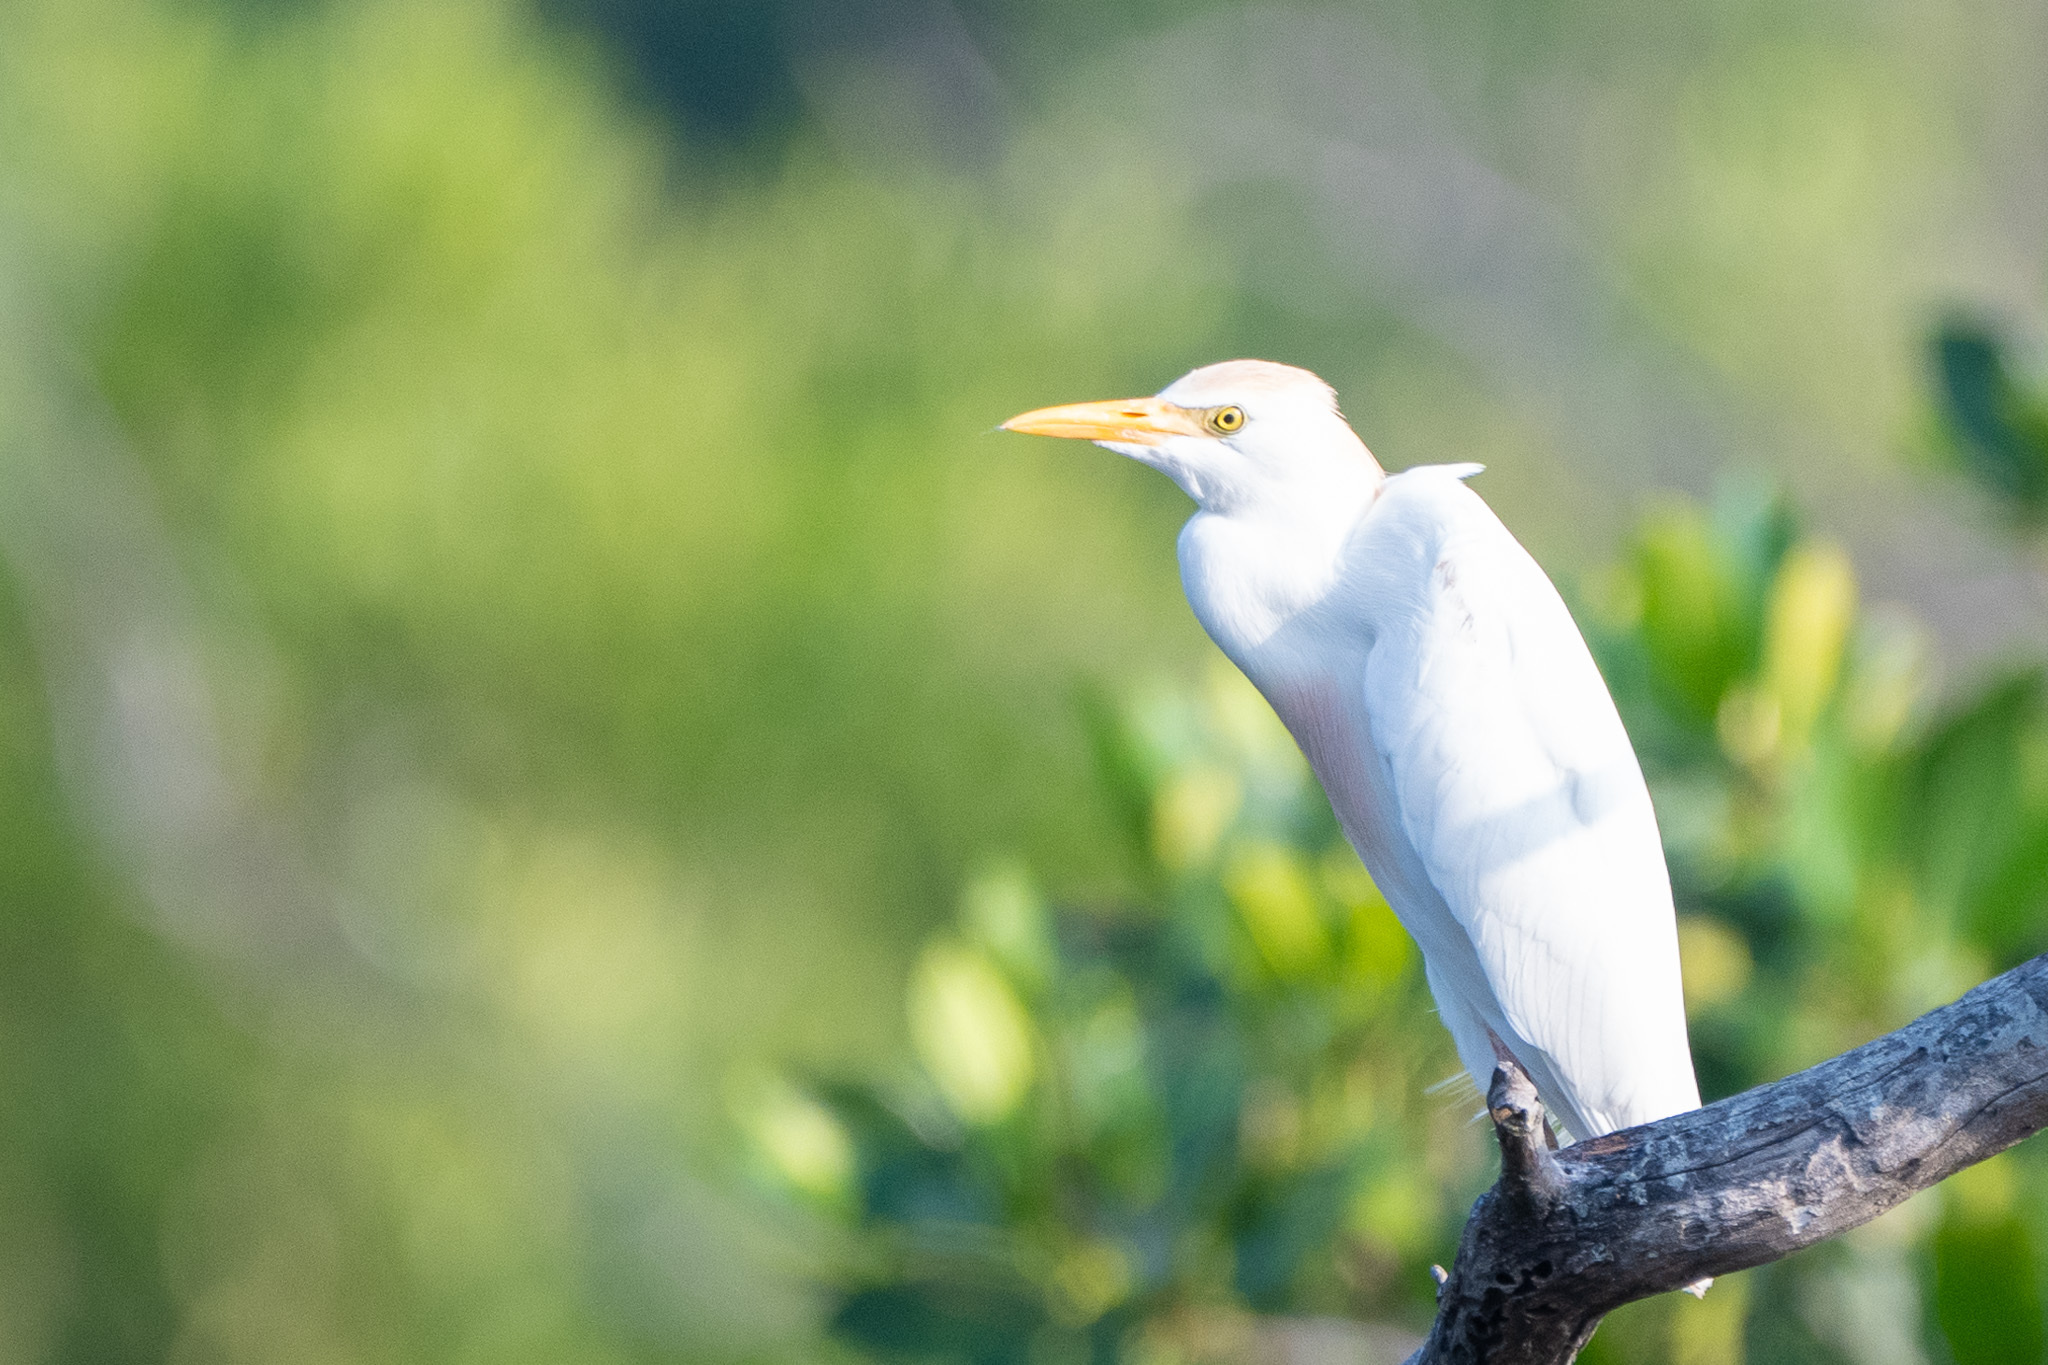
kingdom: Animalia
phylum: Chordata
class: Aves
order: Pelecaniformes
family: Ardeidae
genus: Bubulcus
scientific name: Bubulcus ibis
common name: Cattle egret
